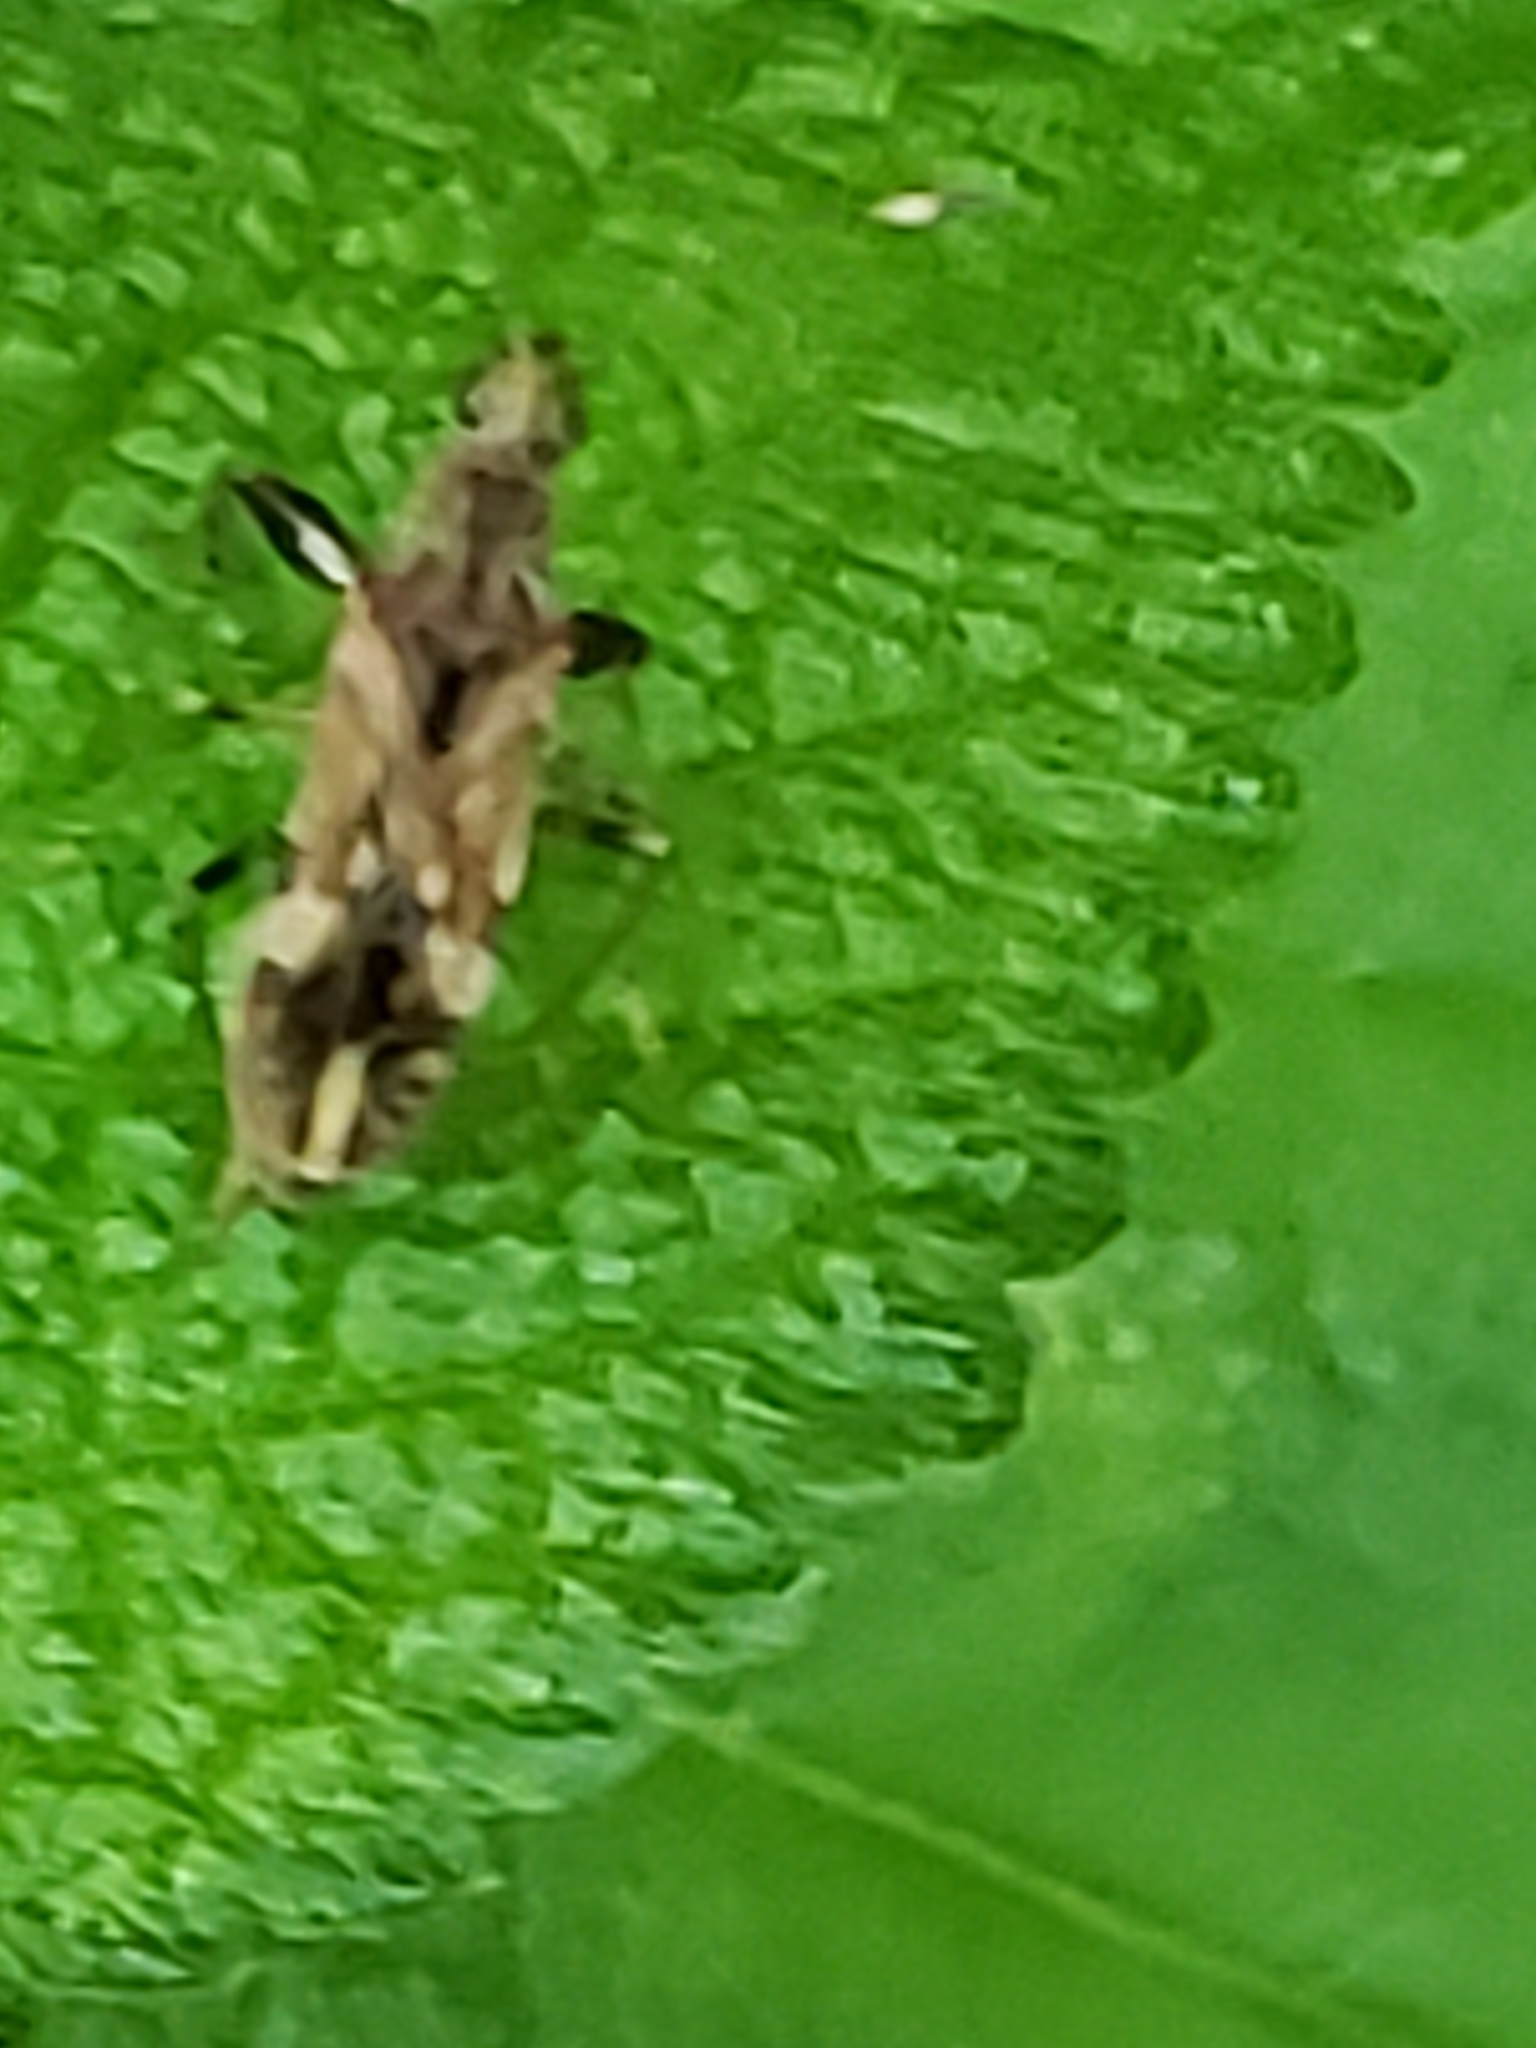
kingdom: Animalia
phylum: Arthropoda
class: Insecta
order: Hemiptera
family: Rhyparochromidae
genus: Neopamera
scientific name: Neopamera albocincta
